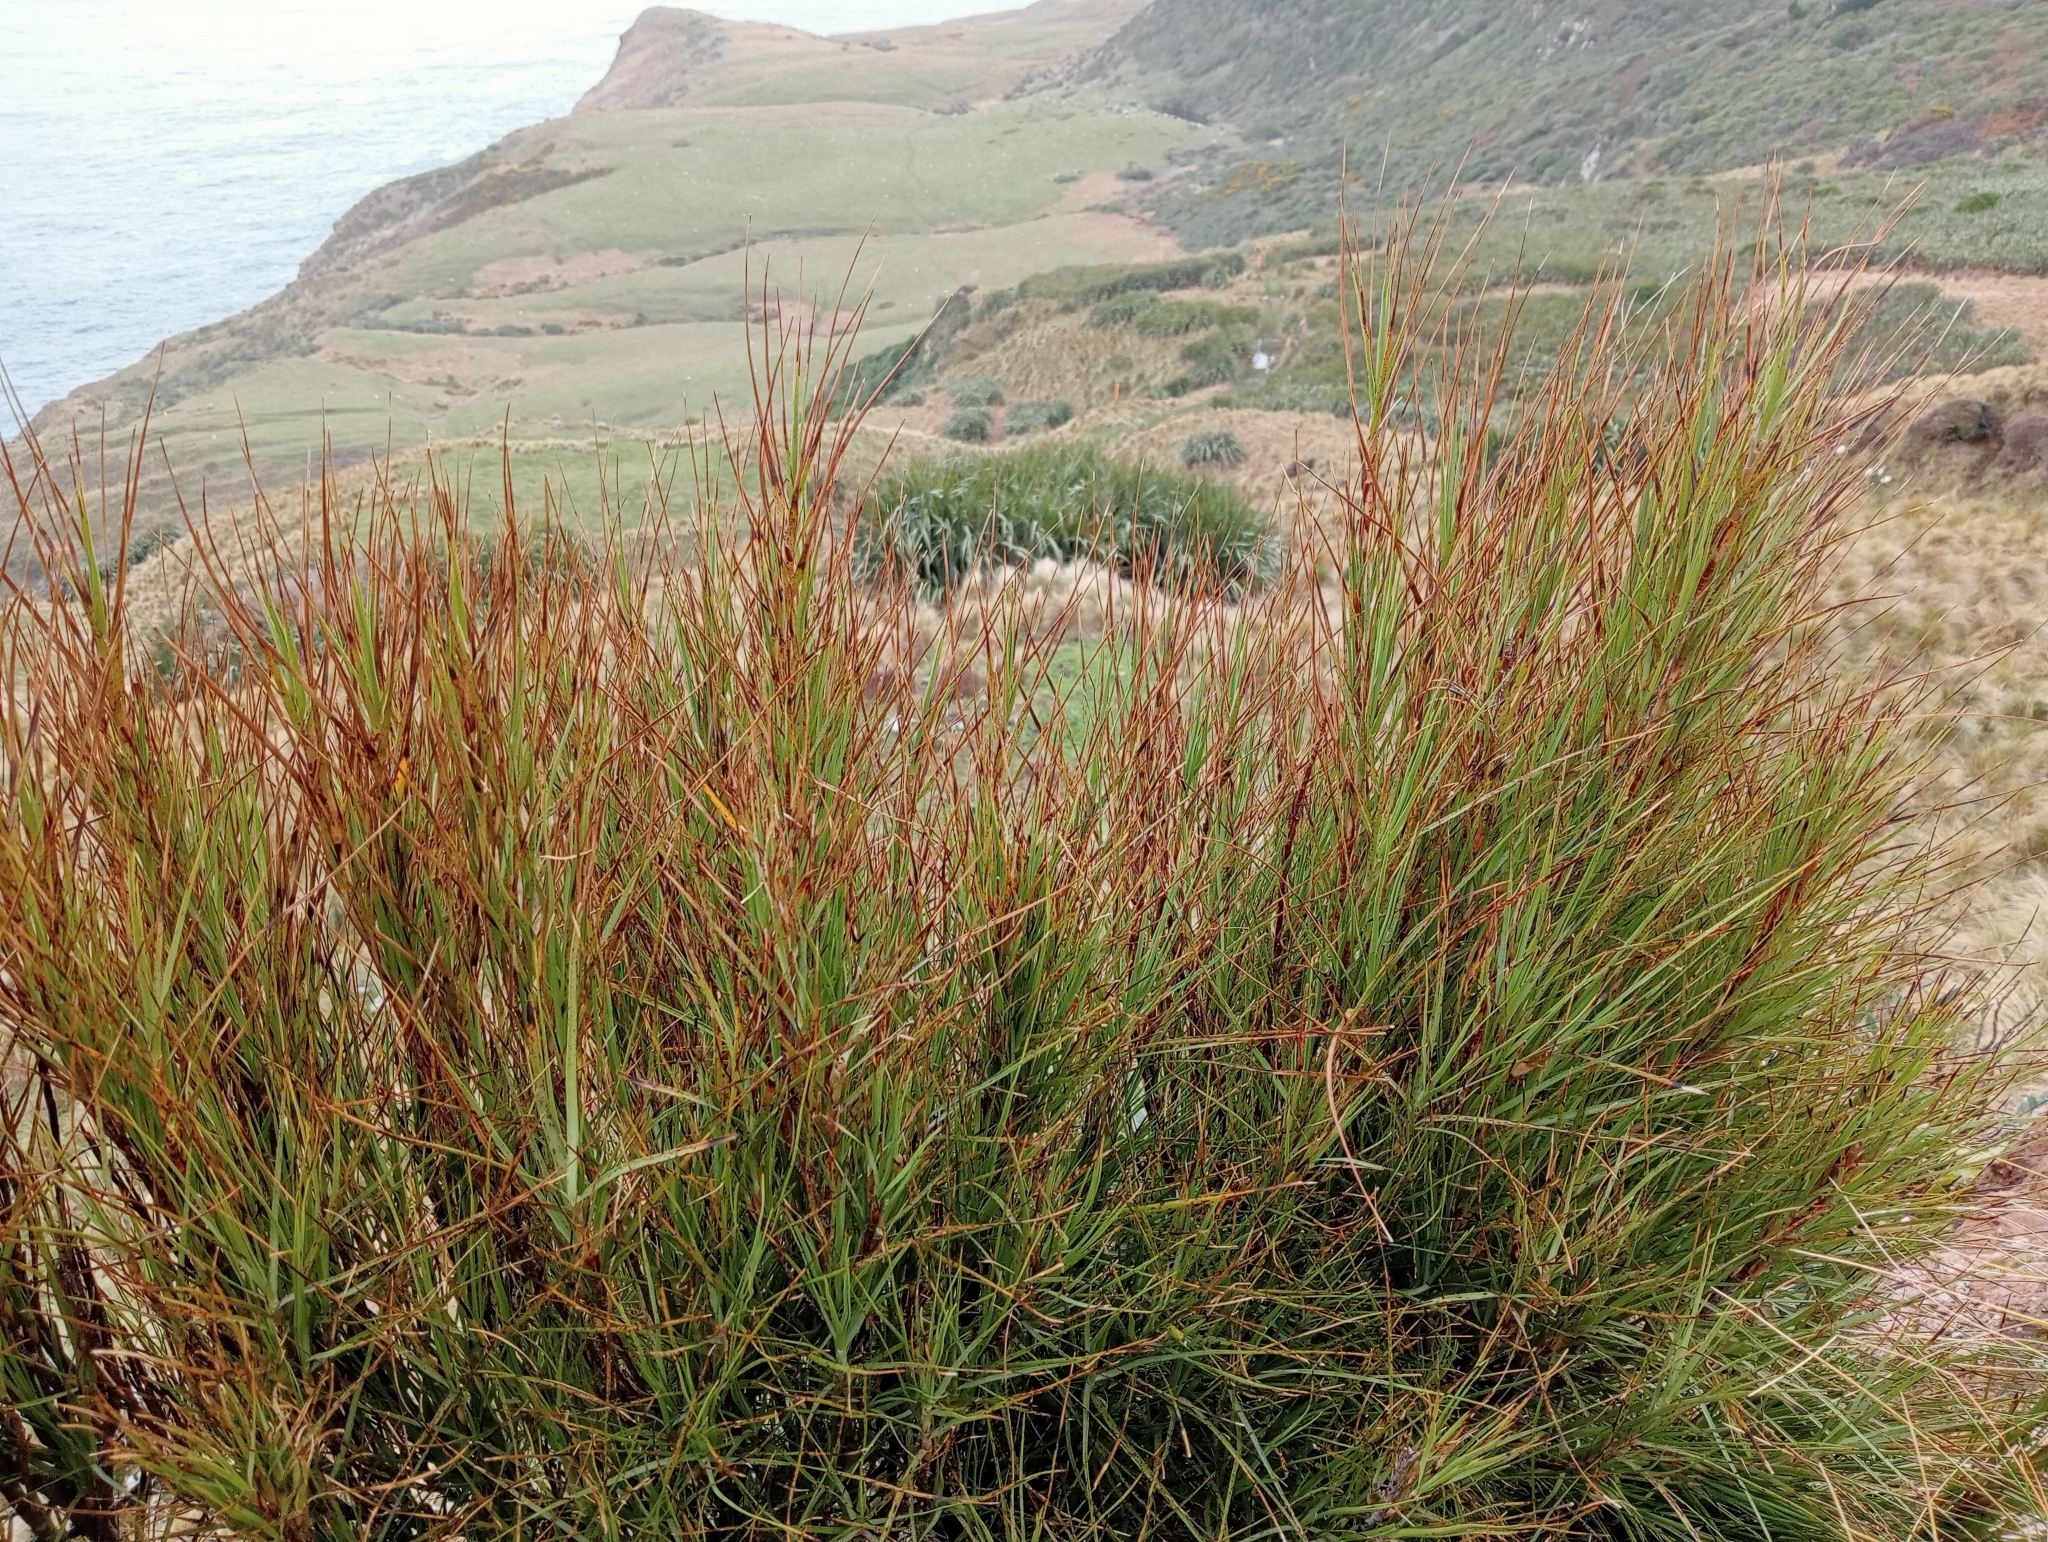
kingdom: Plantae
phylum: Tracheophyta
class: Magnoliopsida
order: Ericales
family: Ericaceae
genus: Dracophyllum
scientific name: Dracophyllum longifolium
